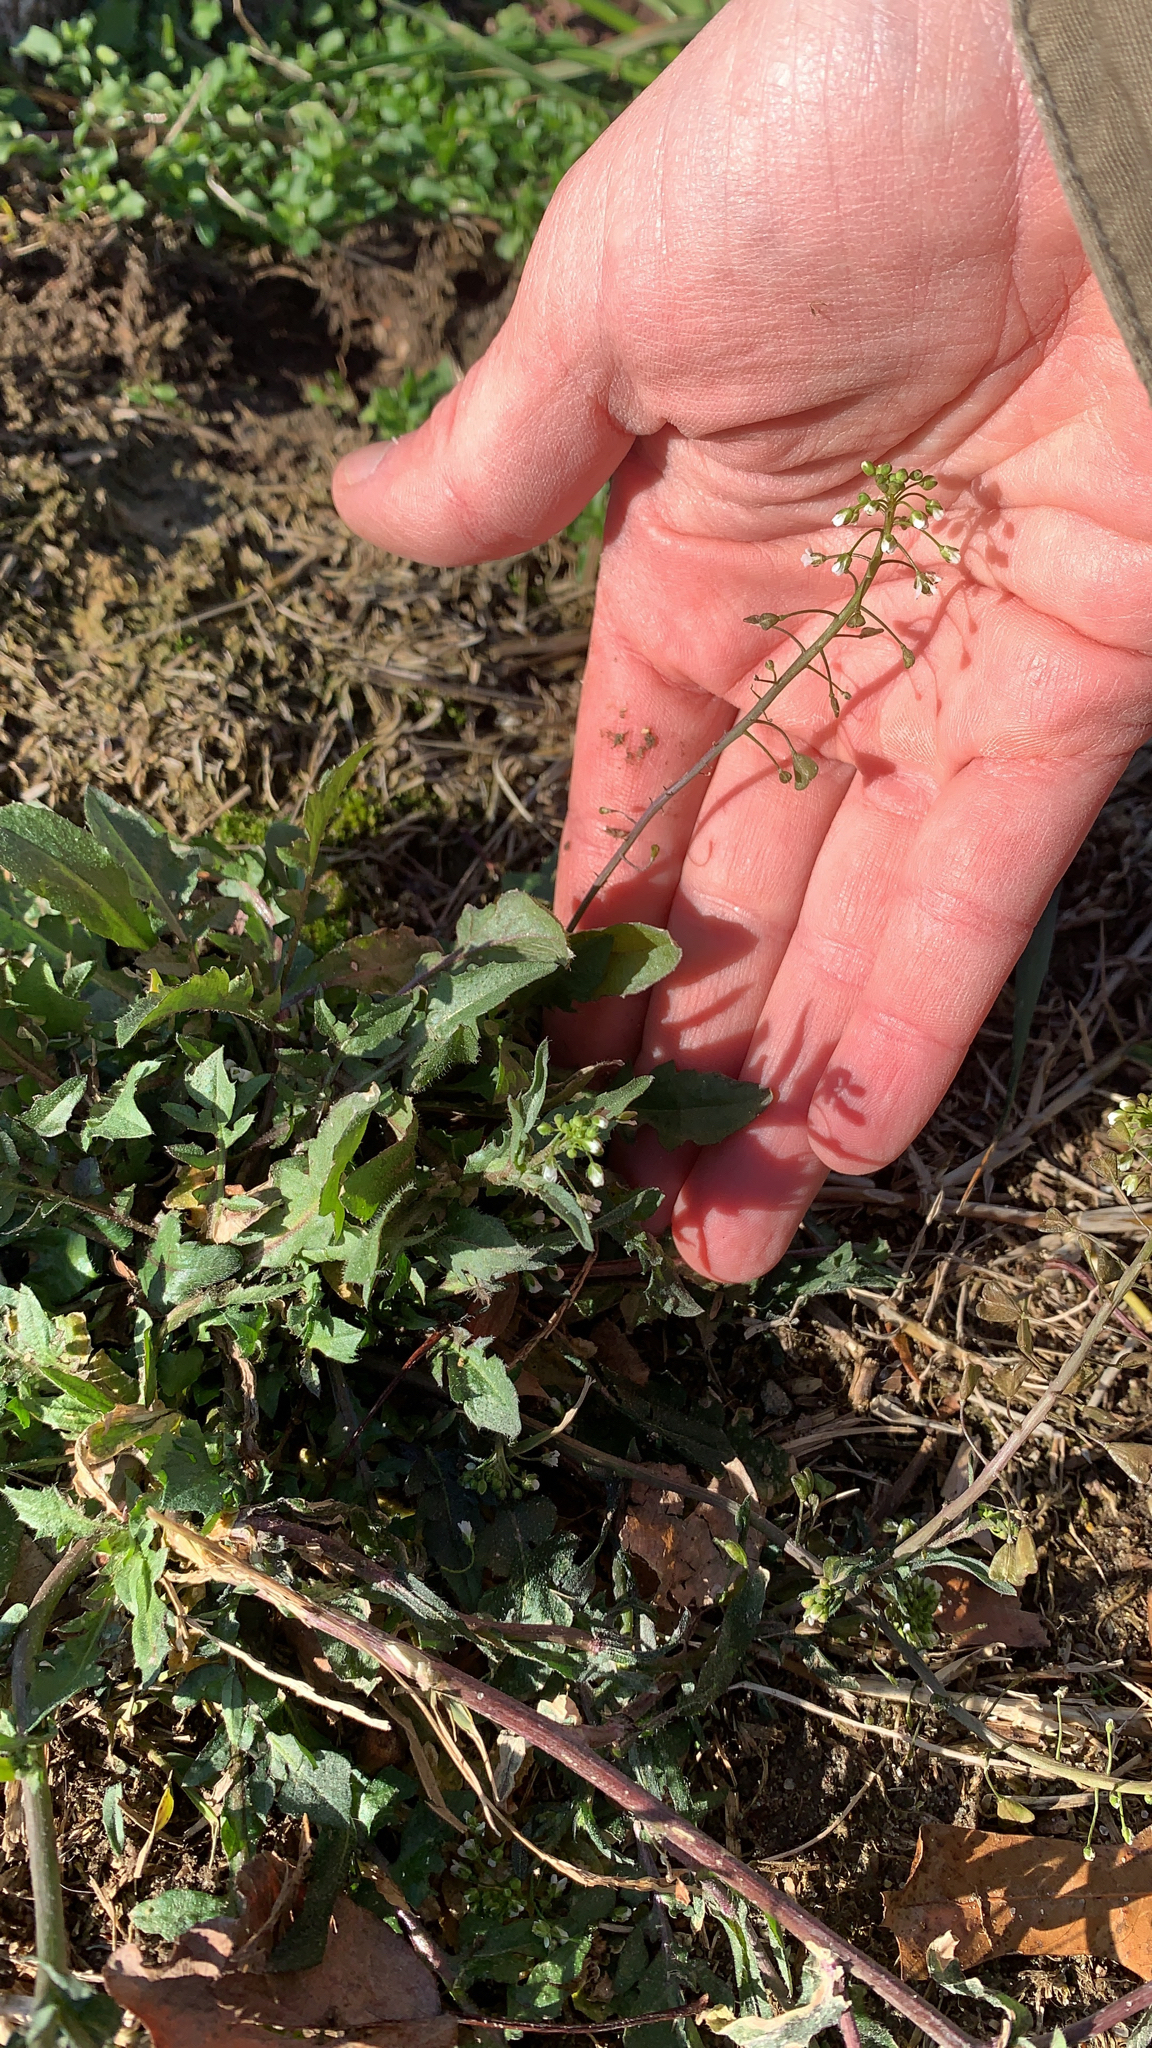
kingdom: Plantae
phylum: Tracheophyta
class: Magnoliopsida
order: Brassicales
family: Brassicaceae
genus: Capsella
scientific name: Capsella bursa-pastoris
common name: Shepherd's purse
